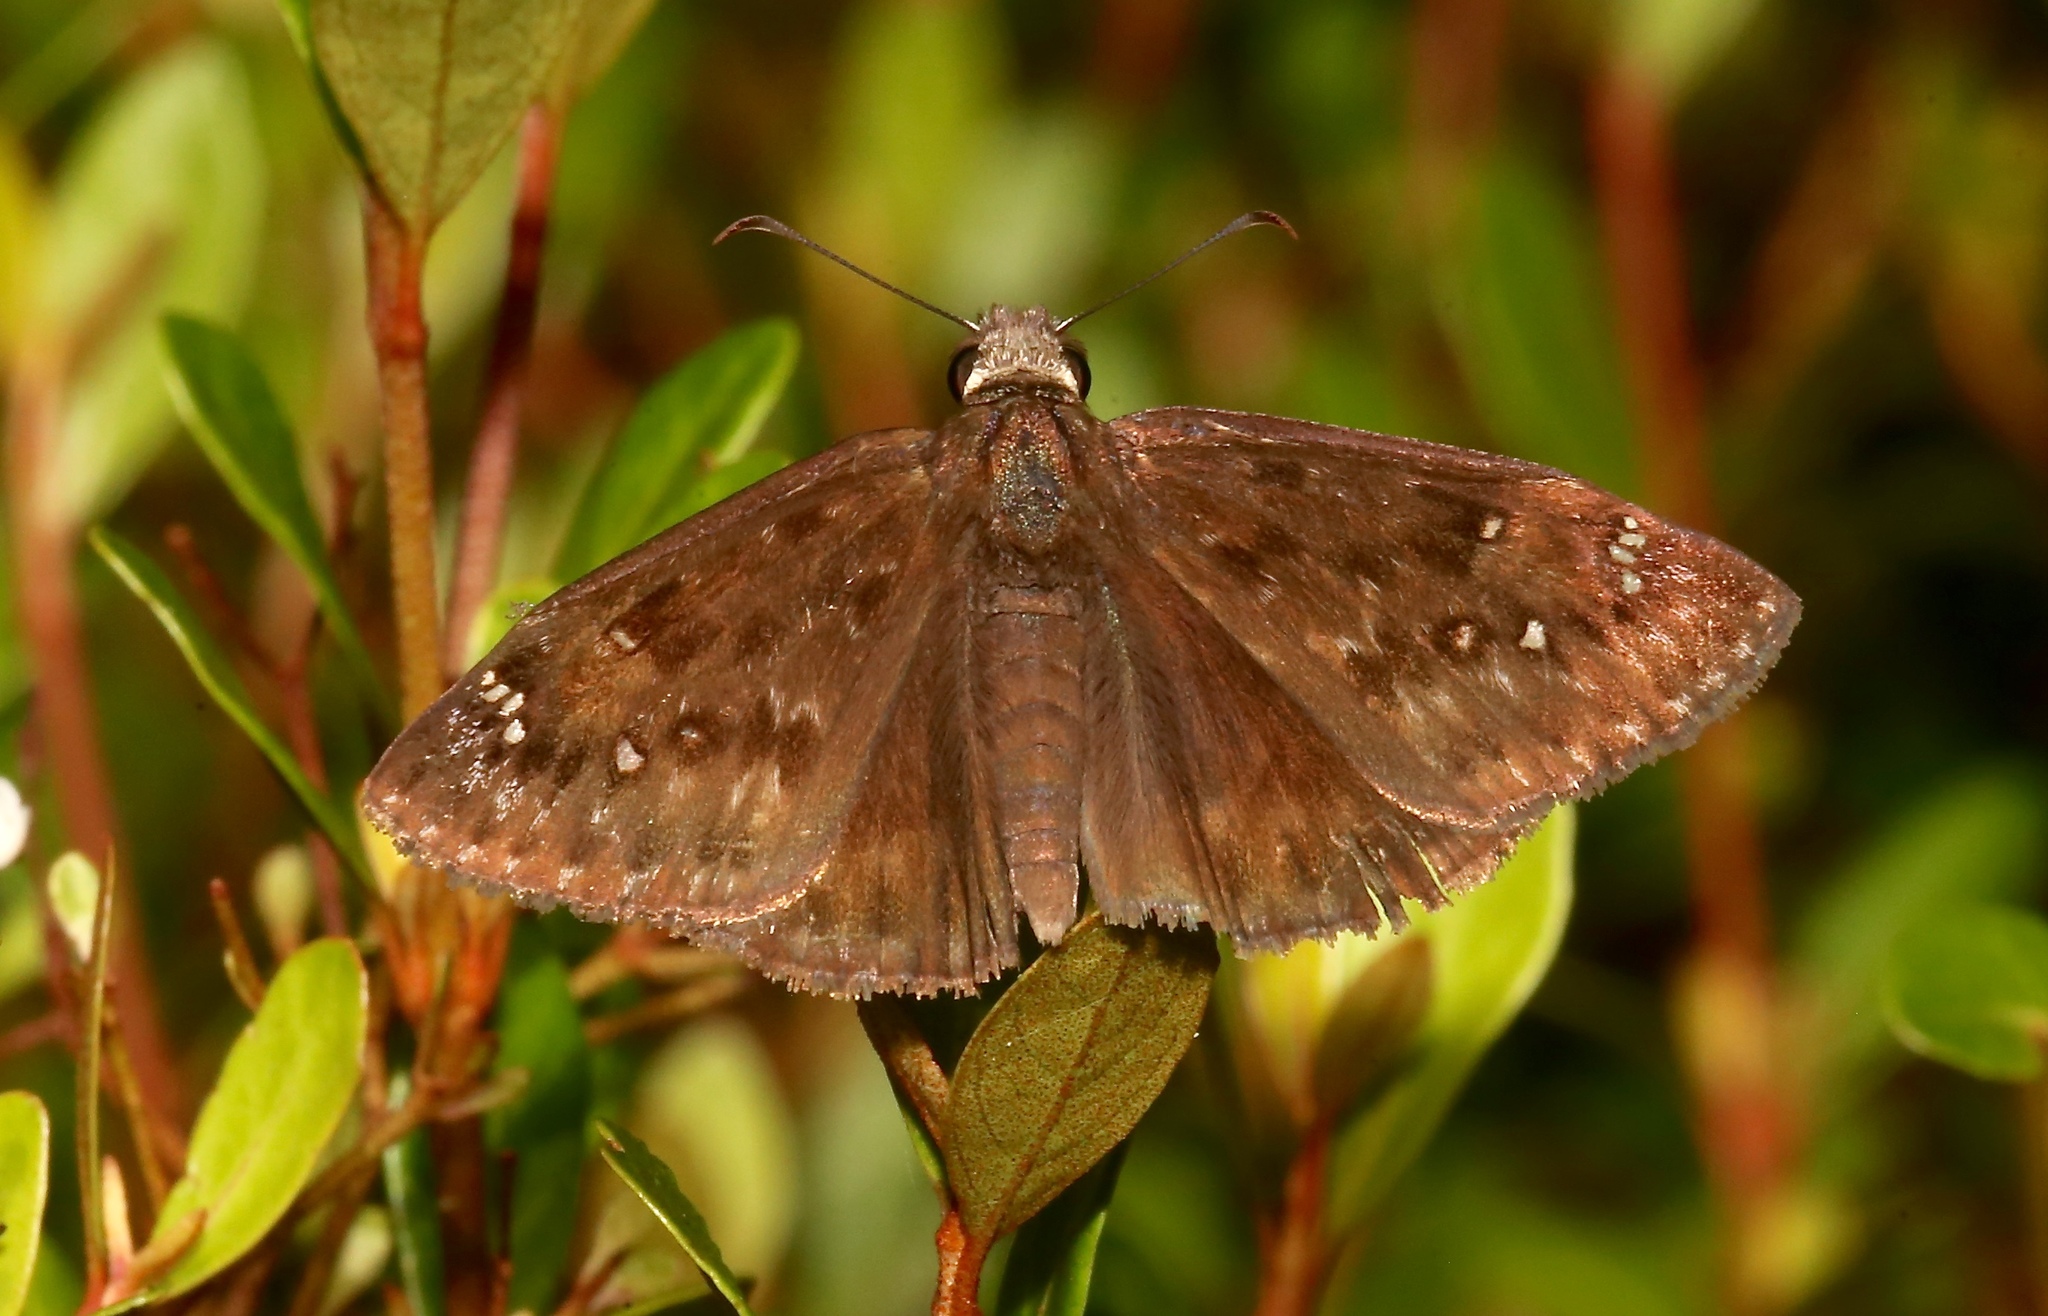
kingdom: Animalia
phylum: Arthropoda
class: Insecta
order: Lepidoptera
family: Hesperiidae
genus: Erynnis
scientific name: Erynnis horatius
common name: Horace's duskywing
